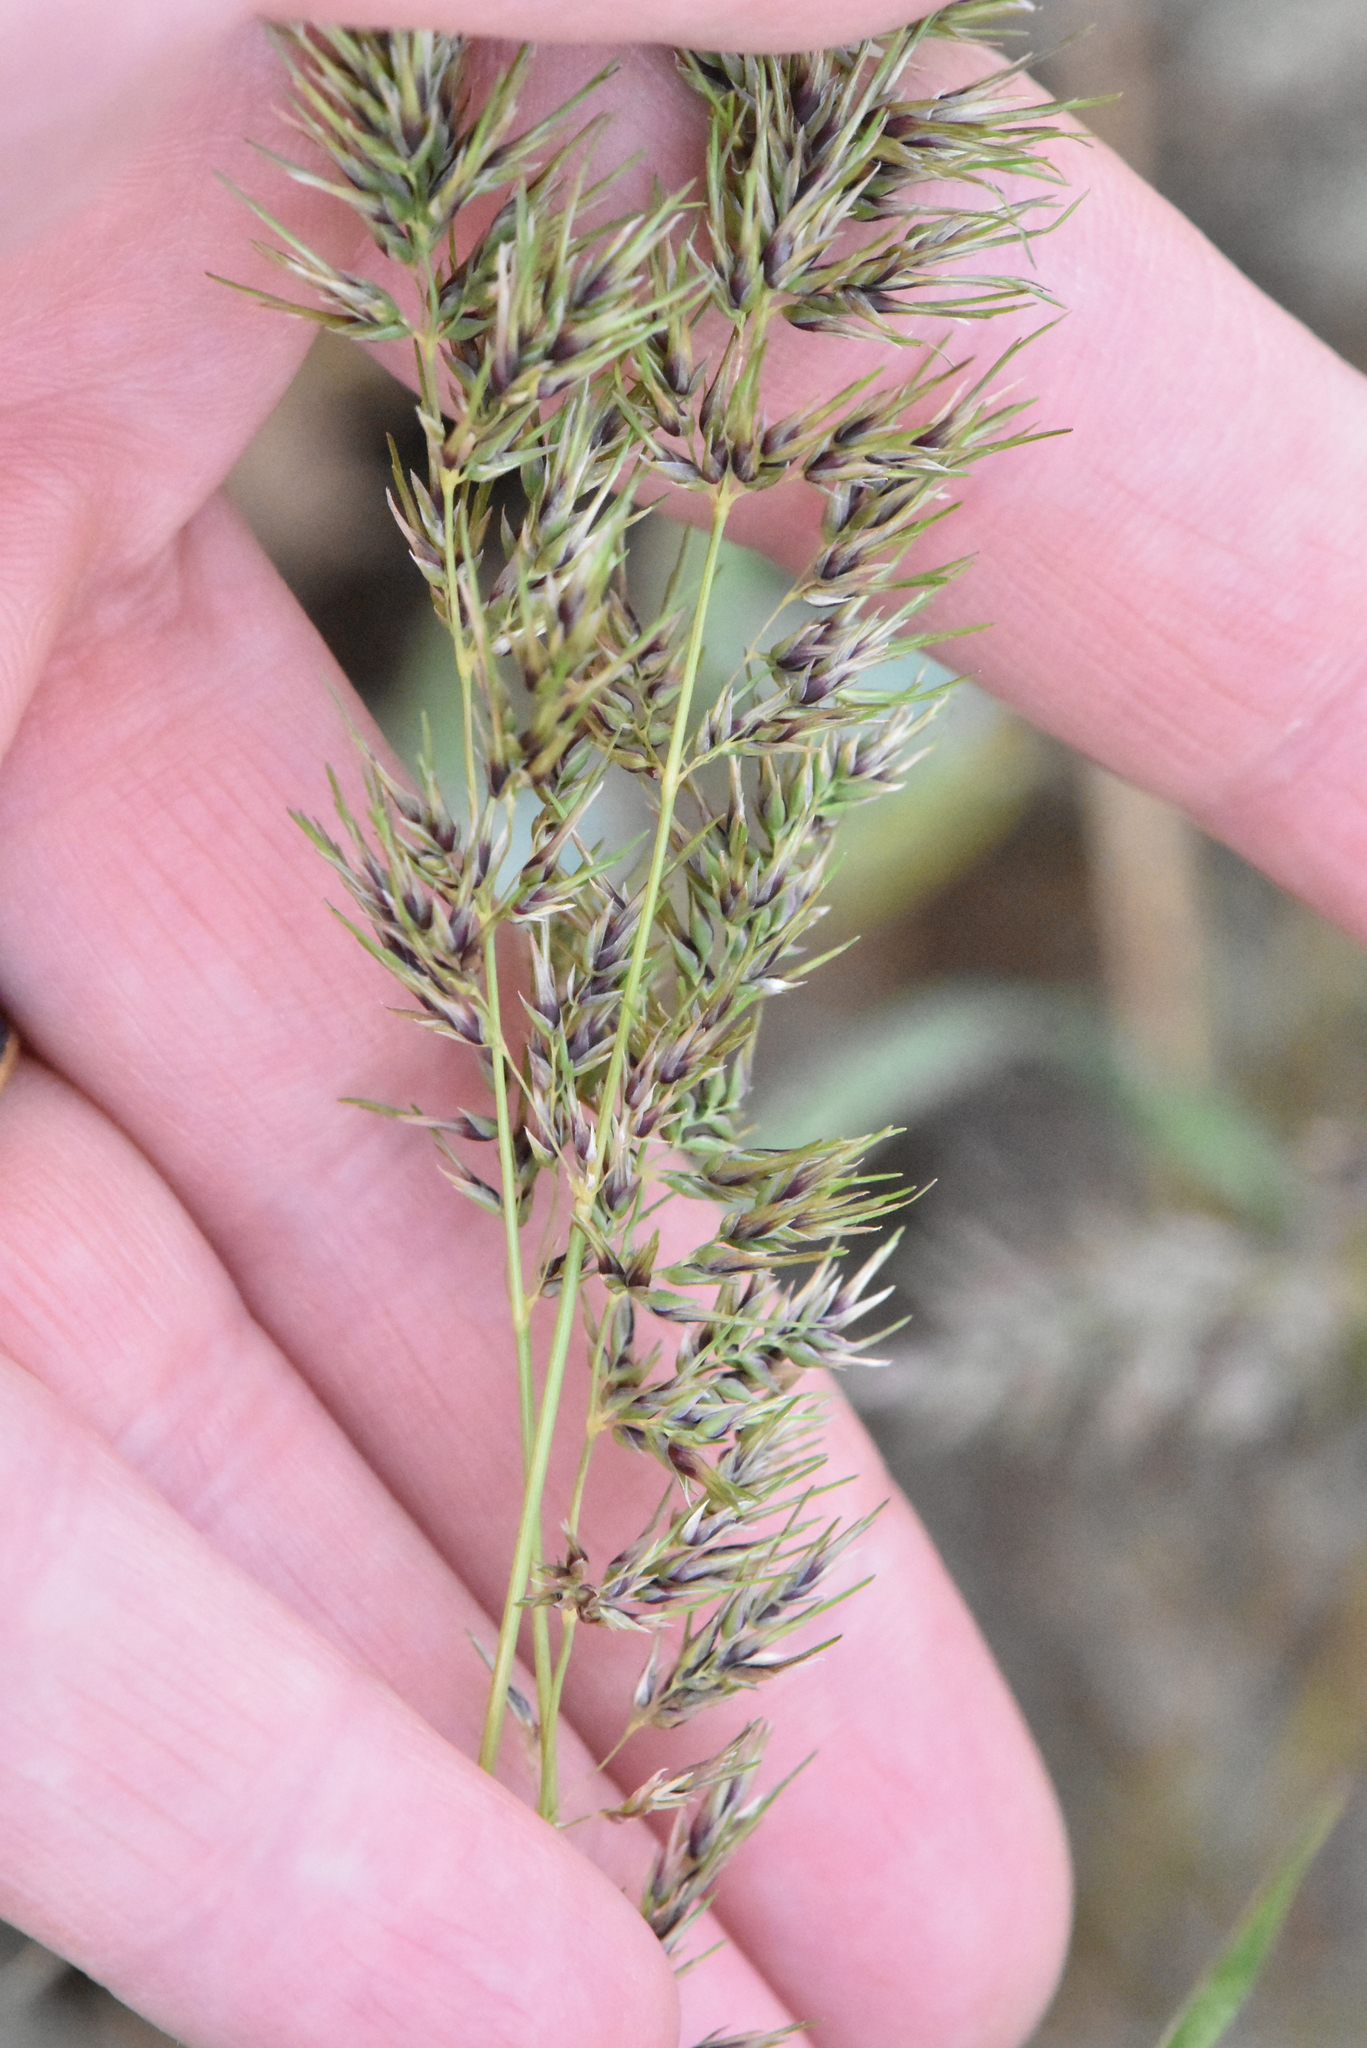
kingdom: Plantae
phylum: Tracheophyta
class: Liliopsida
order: Poales
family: Poaceae
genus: Poa
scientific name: Poa bulbosa
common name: Bulbous bluegrass
